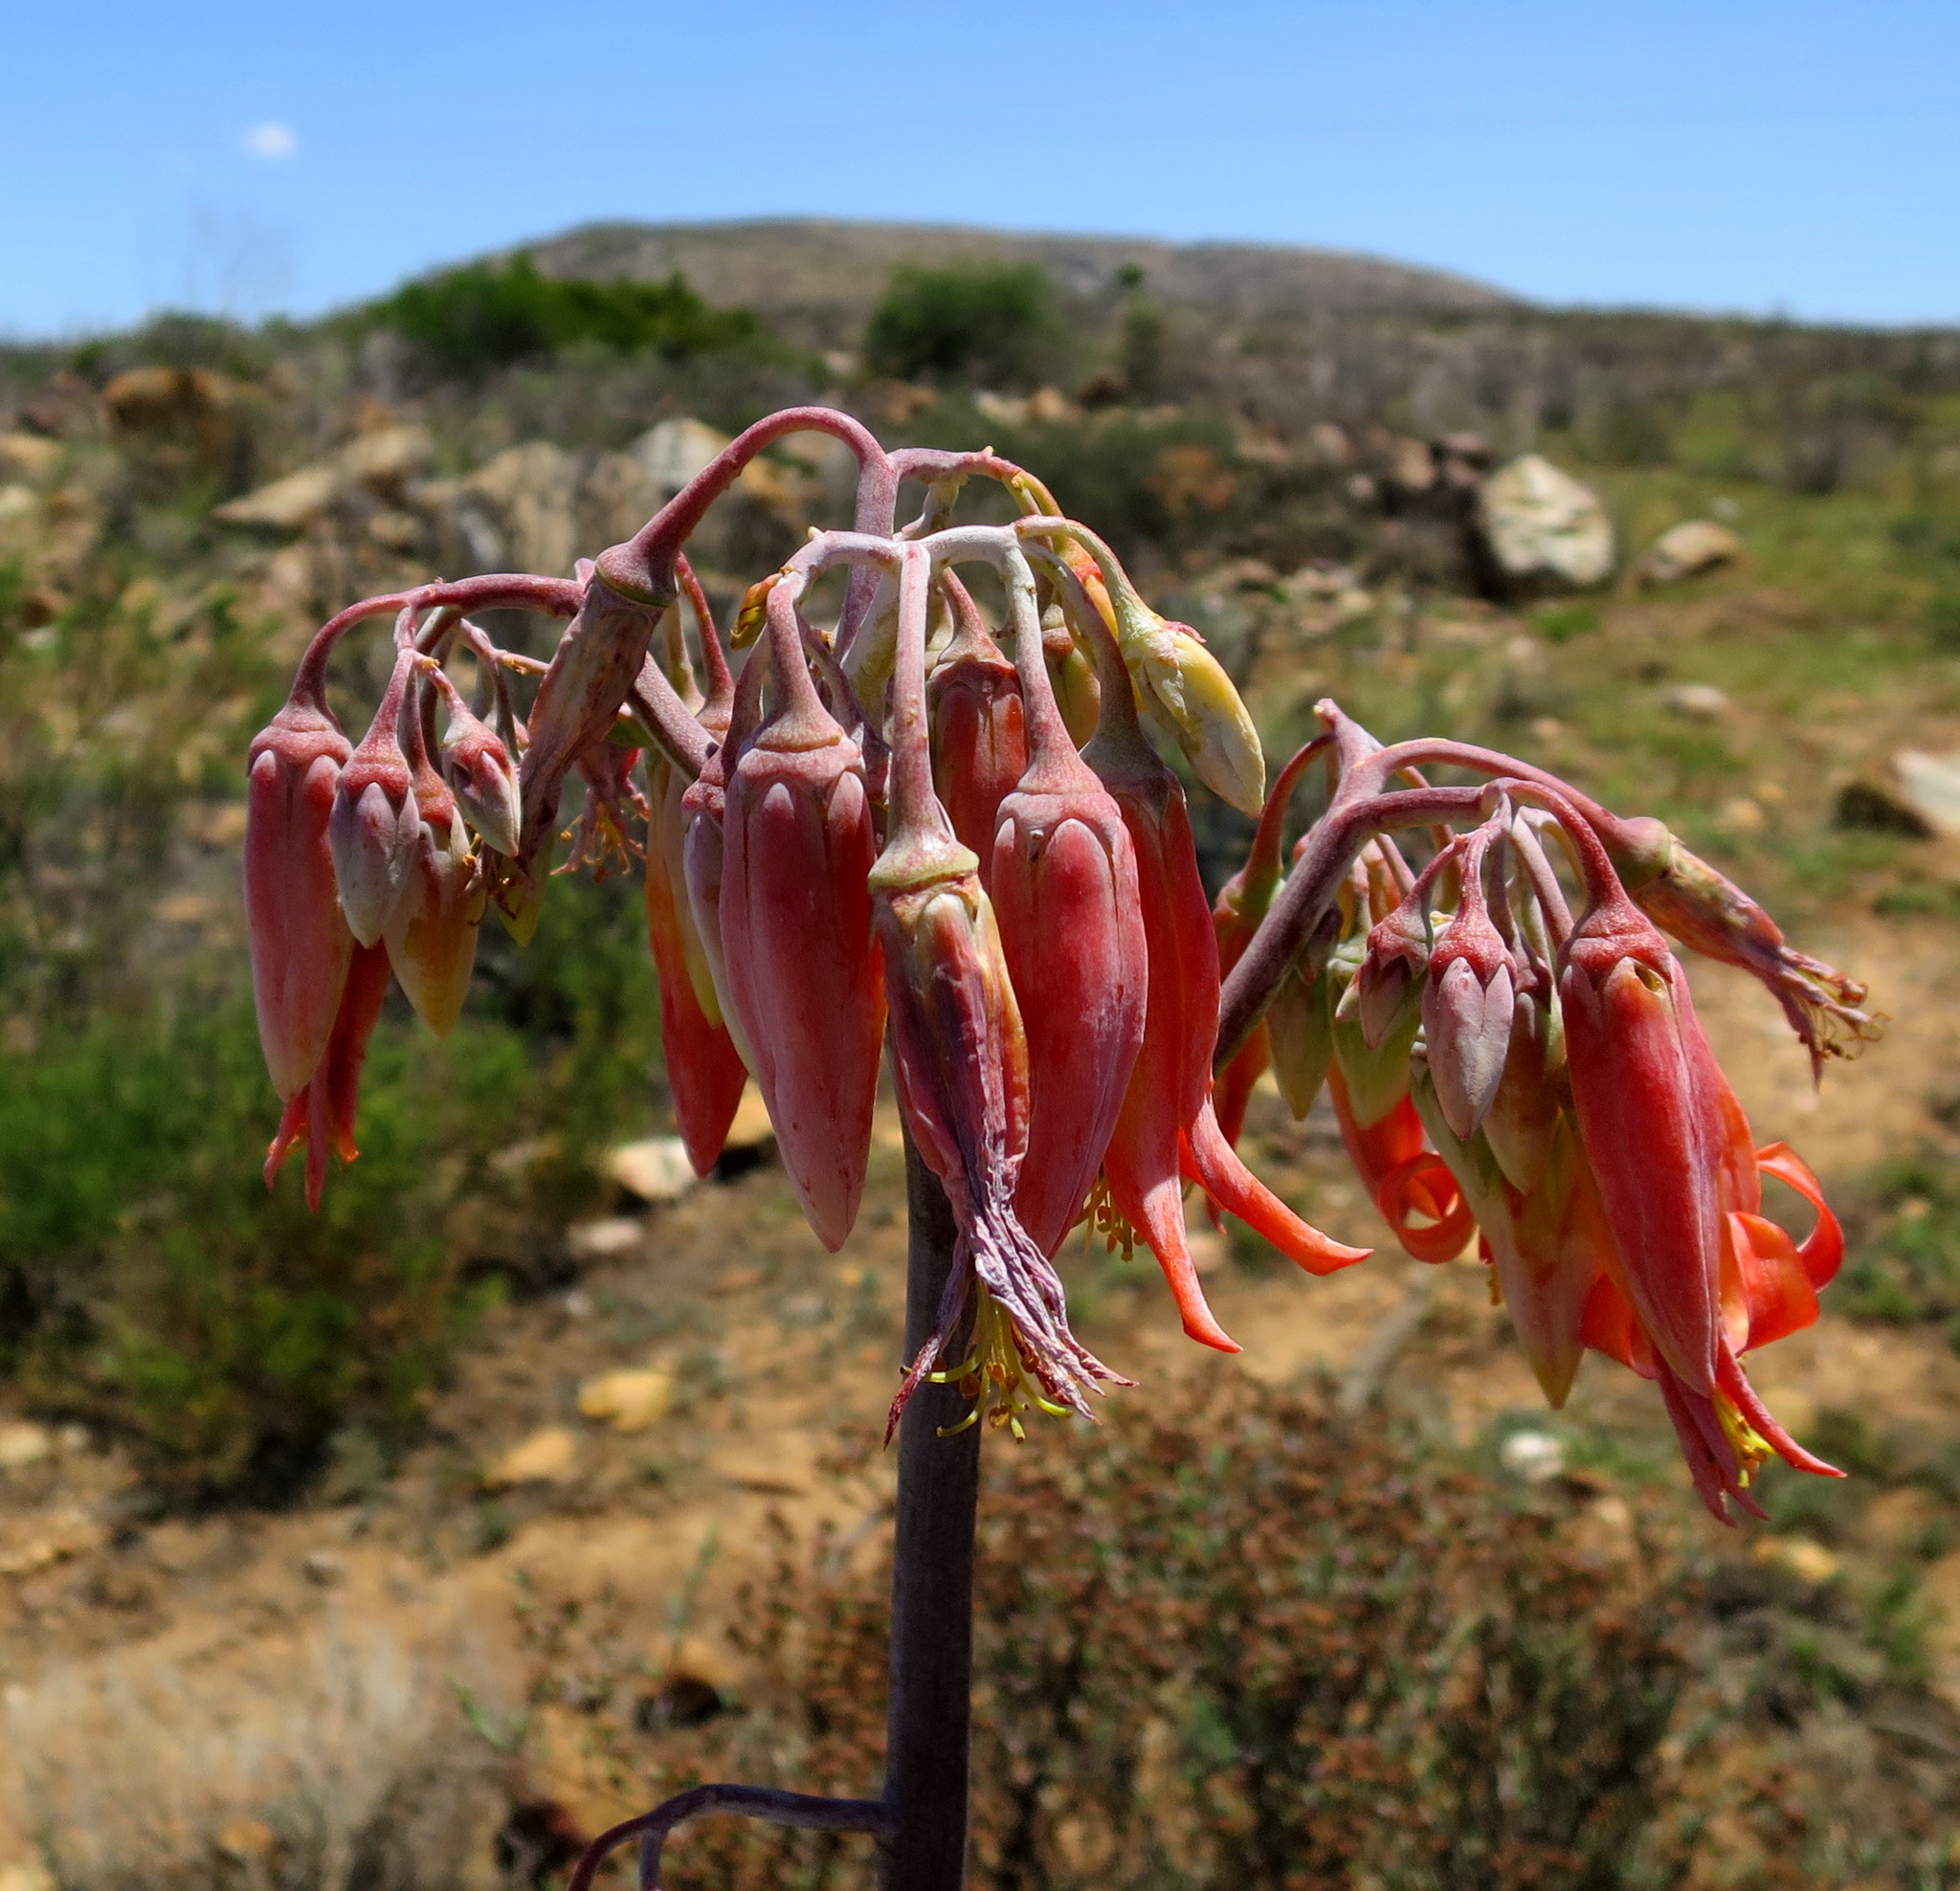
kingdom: Plantae
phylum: Tracheophyta
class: Magnoliopsida
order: Saxifragales
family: Crassulaceae
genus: Cotyledon
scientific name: Cotyledon orbiculata
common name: Pig's ear
